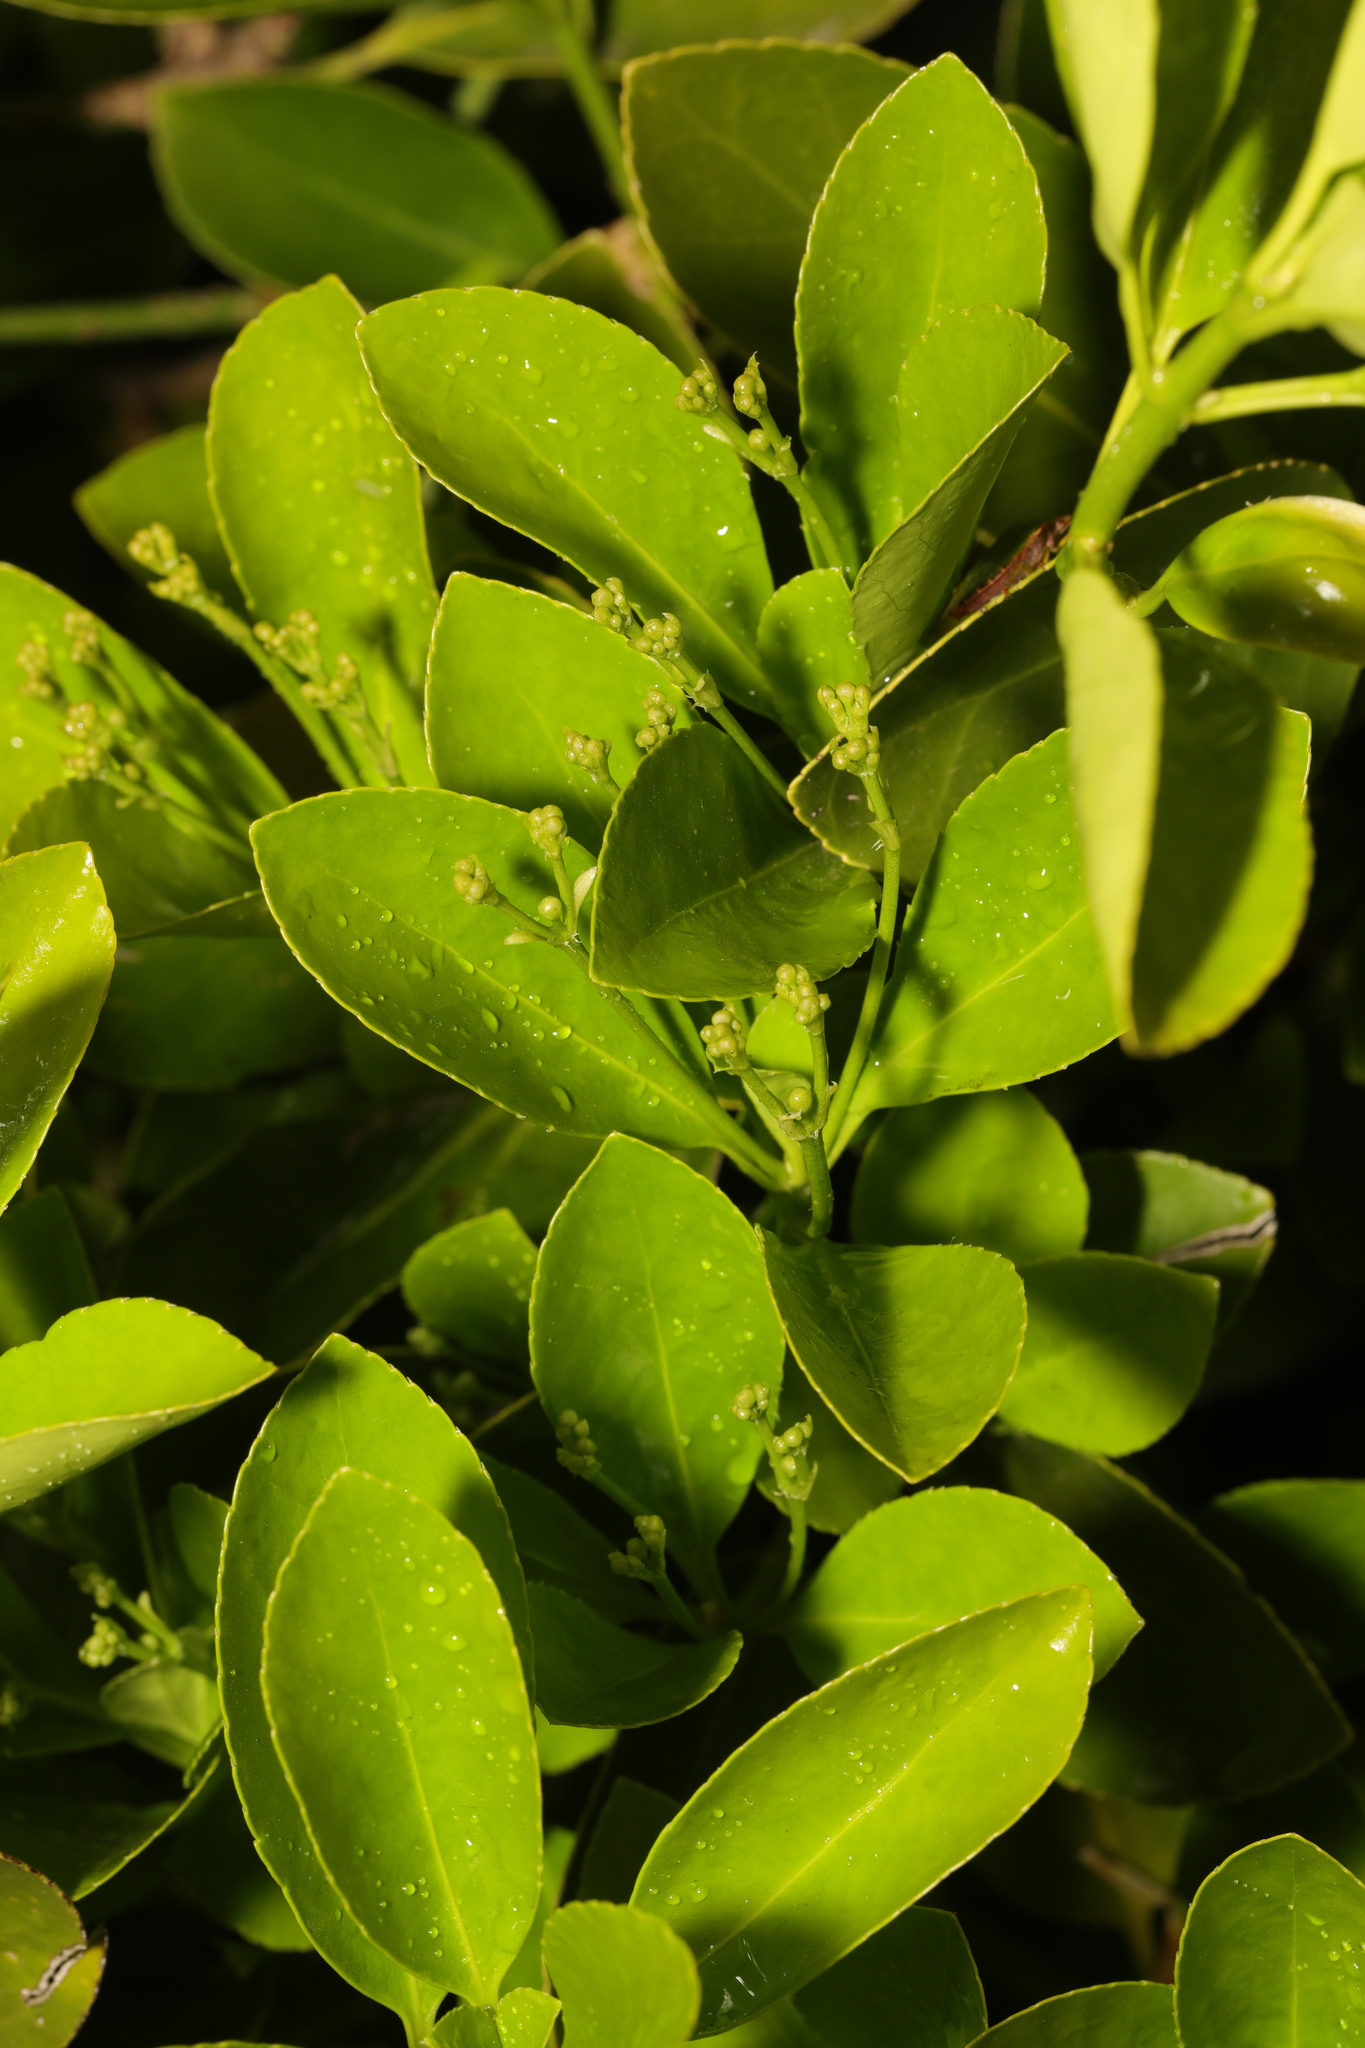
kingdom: Plantae
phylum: Tracheophyta
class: Magnoliopsida
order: Celastrales
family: Celastraceae
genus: Euonymus
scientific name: Euonymus japonicus
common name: Japanese spindletree
